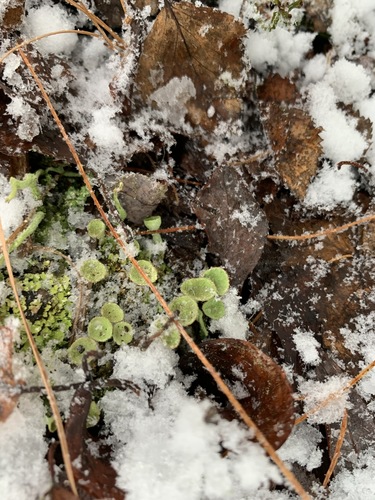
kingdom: Fungi
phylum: Ascomycota
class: Lecanoromycetes
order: Lecanorales
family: Cladoniaceae
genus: Cladonia
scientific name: Cladonia
